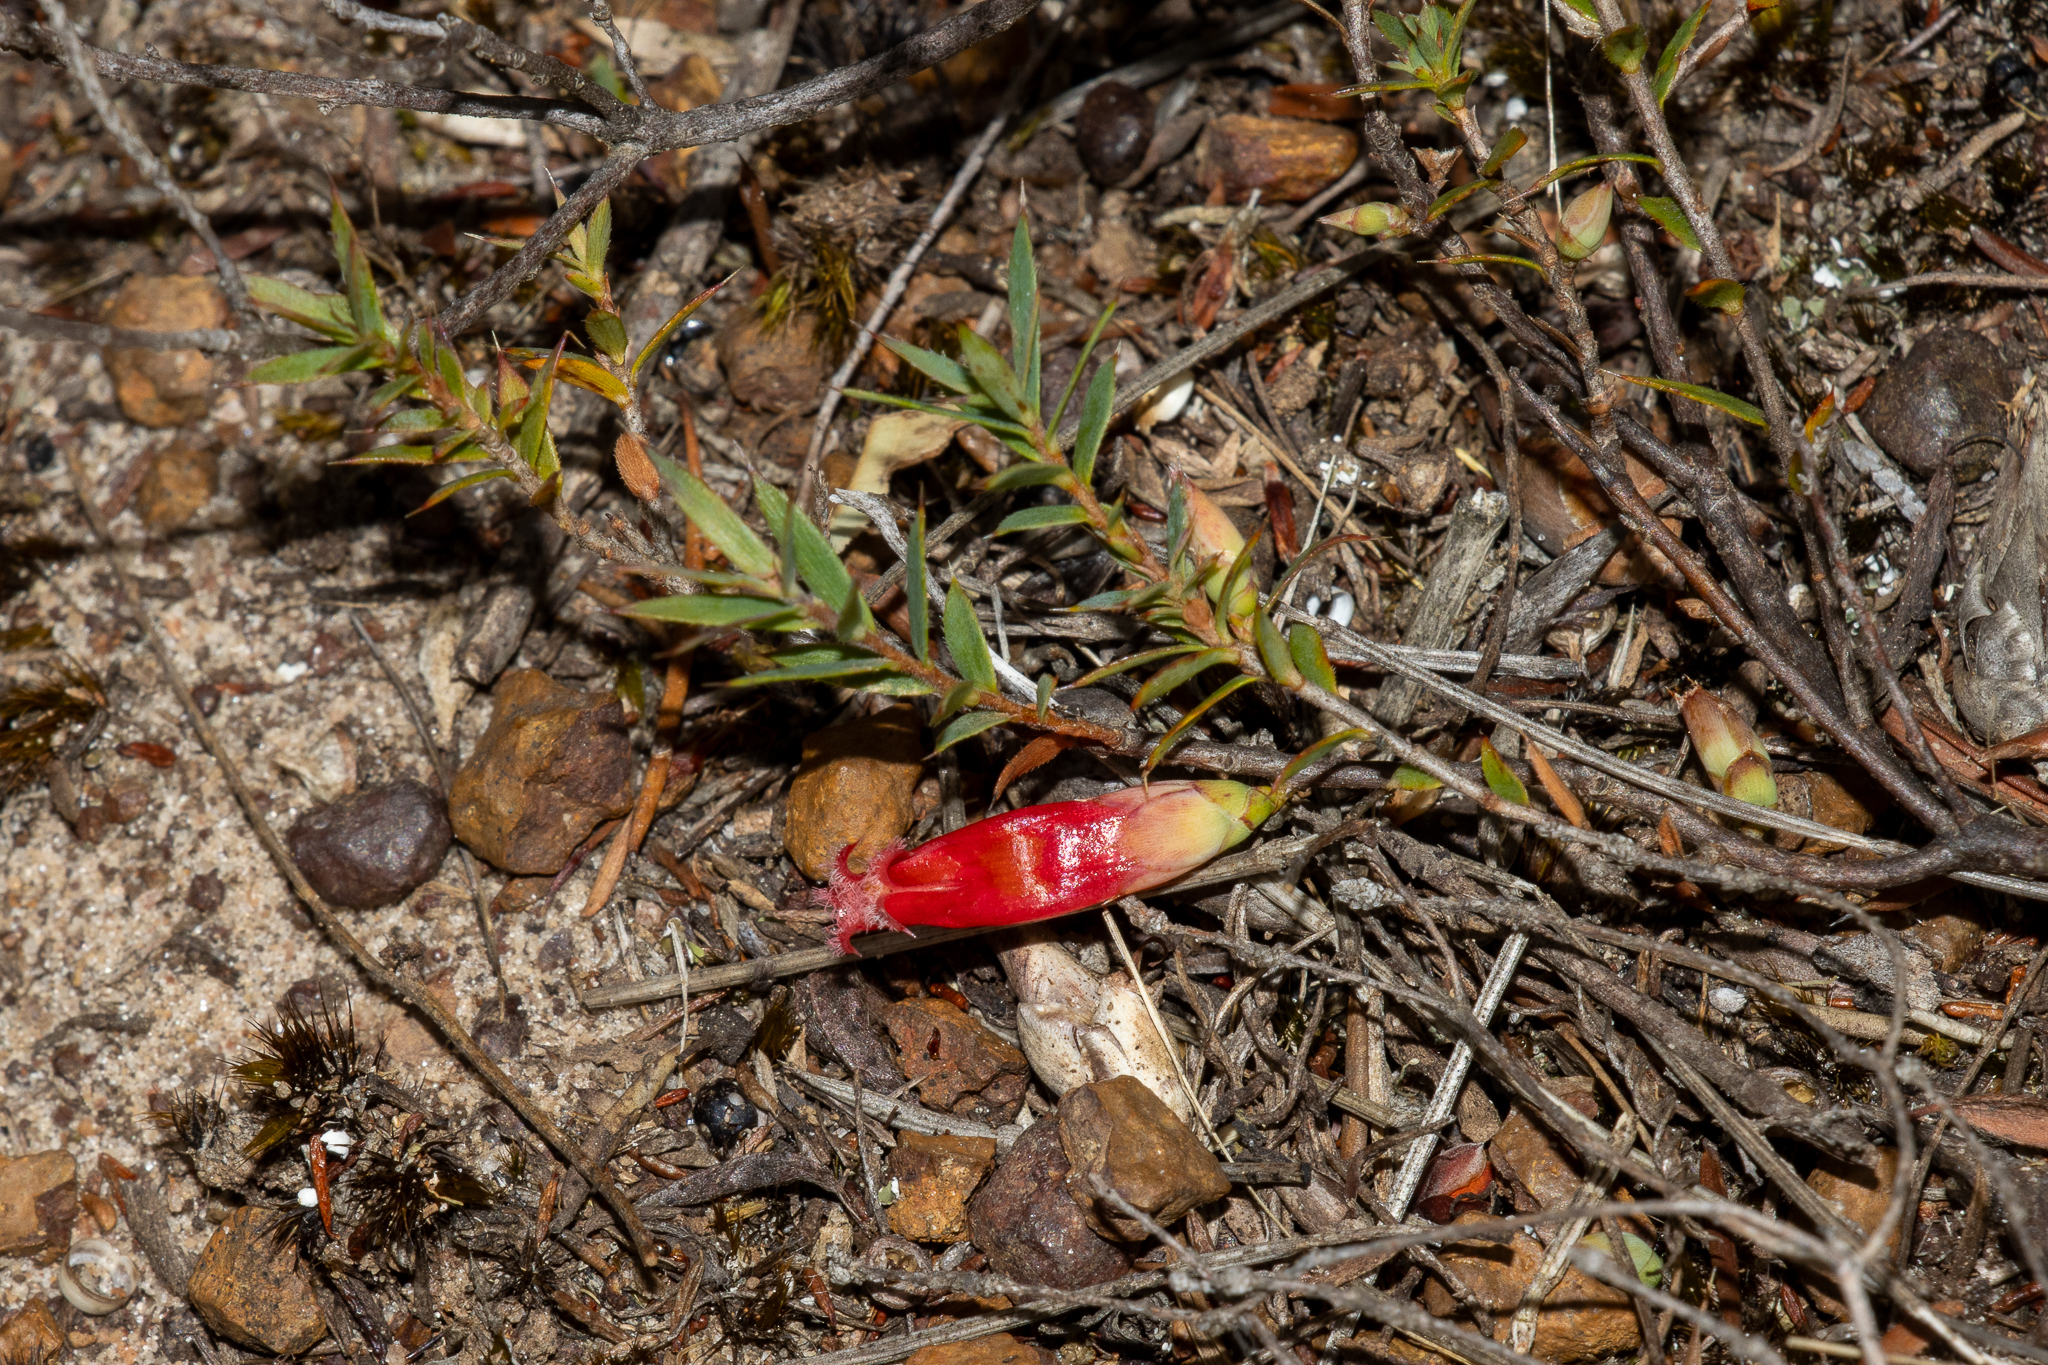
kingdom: Plantae
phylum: Tracheophyta
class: Magnoliopsida
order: Ericales
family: Ericaceae
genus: Styphelia
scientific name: Styphelia humifusa
